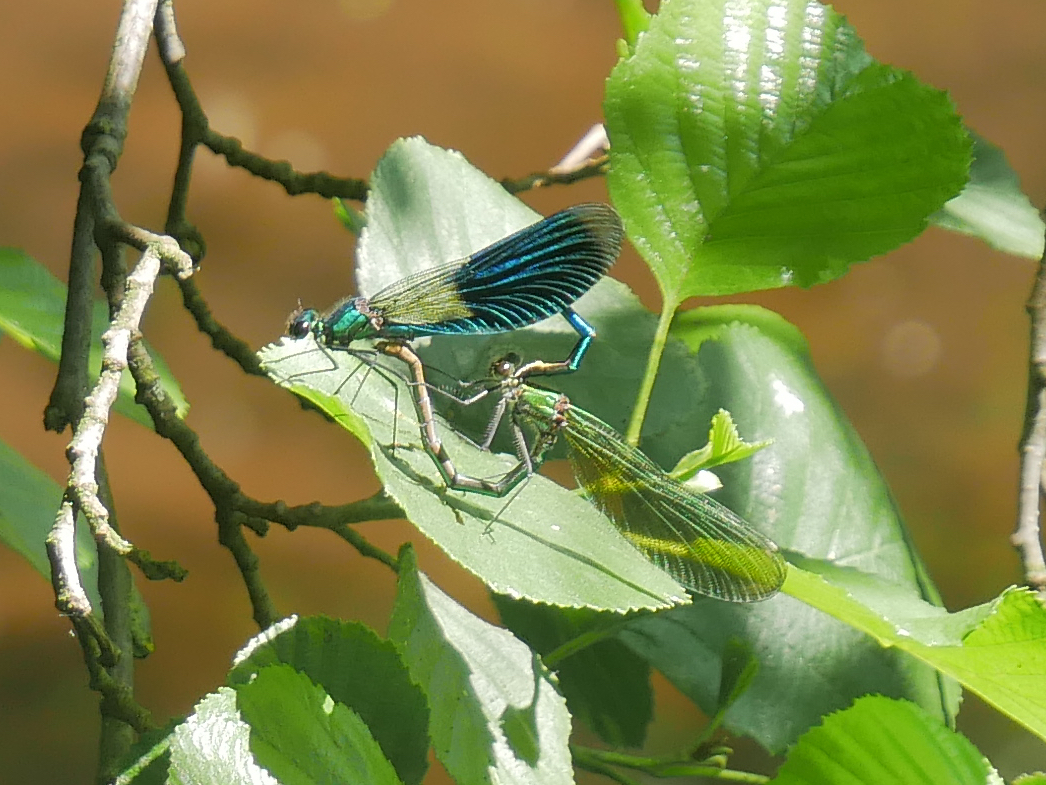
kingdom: Animalia
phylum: Arthropoda
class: Insecta
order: Odonata
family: Calopterygidae
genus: Calopteryx
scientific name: Calopteryx splendens
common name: Banded demoiselle
